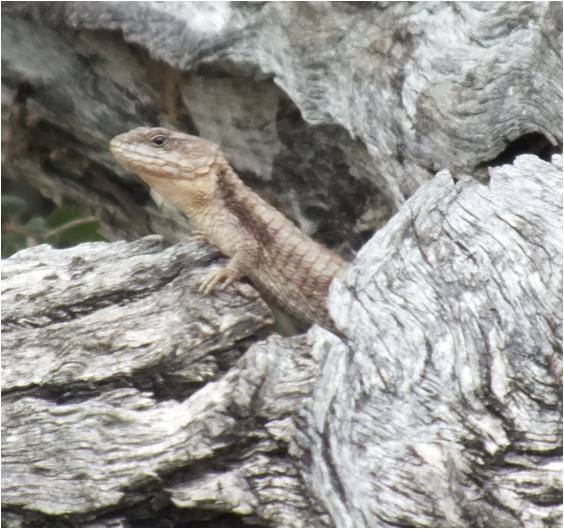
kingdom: Animalia
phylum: Chordata
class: Squamata
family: Cordylidae
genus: Cordylus
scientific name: Cordylus jonesii
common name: Jones' girdled lizard
